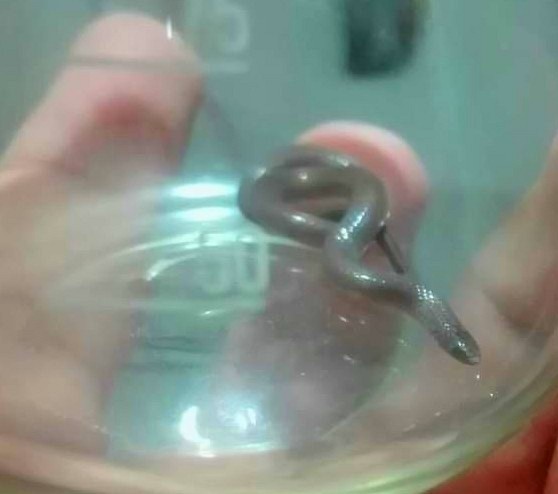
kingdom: Animalia
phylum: Chordata
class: Squamata
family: Colubridae
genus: Tantillita
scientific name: Tantillita canula
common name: Yucatecan dwarf short-tail snake
